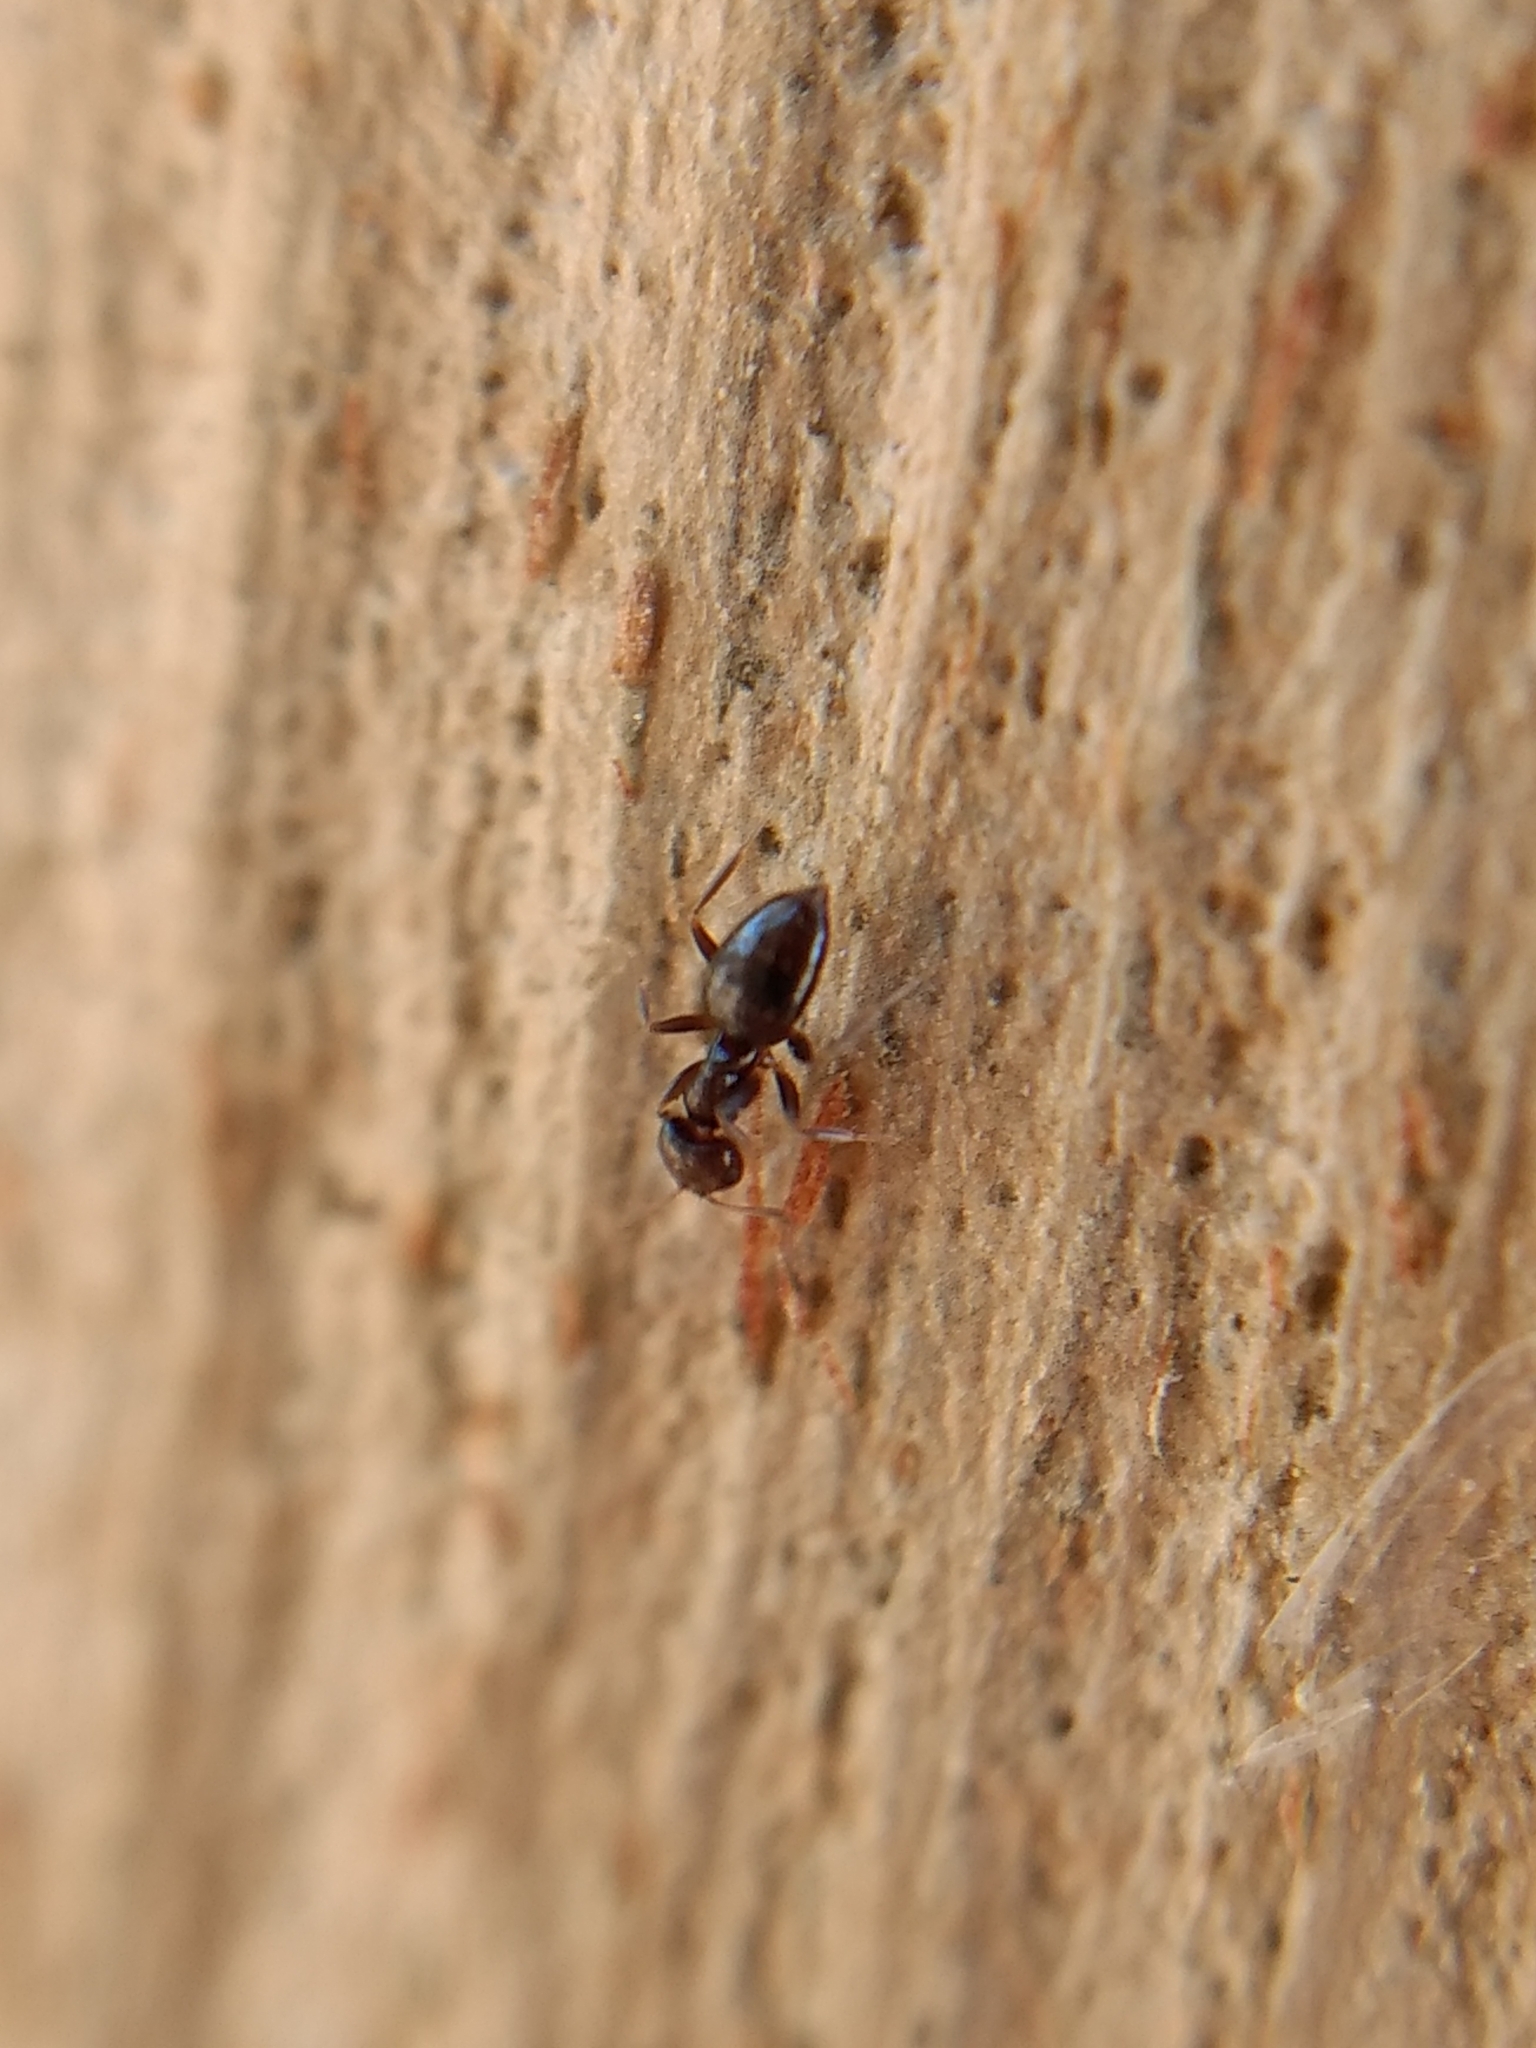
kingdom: Animalia
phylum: Arthropoda
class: Insecta
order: Hymenoptera
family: Formicidae
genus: Brachymyrmex
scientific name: Brachymyrmex patagonicus
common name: Dark rover ant
